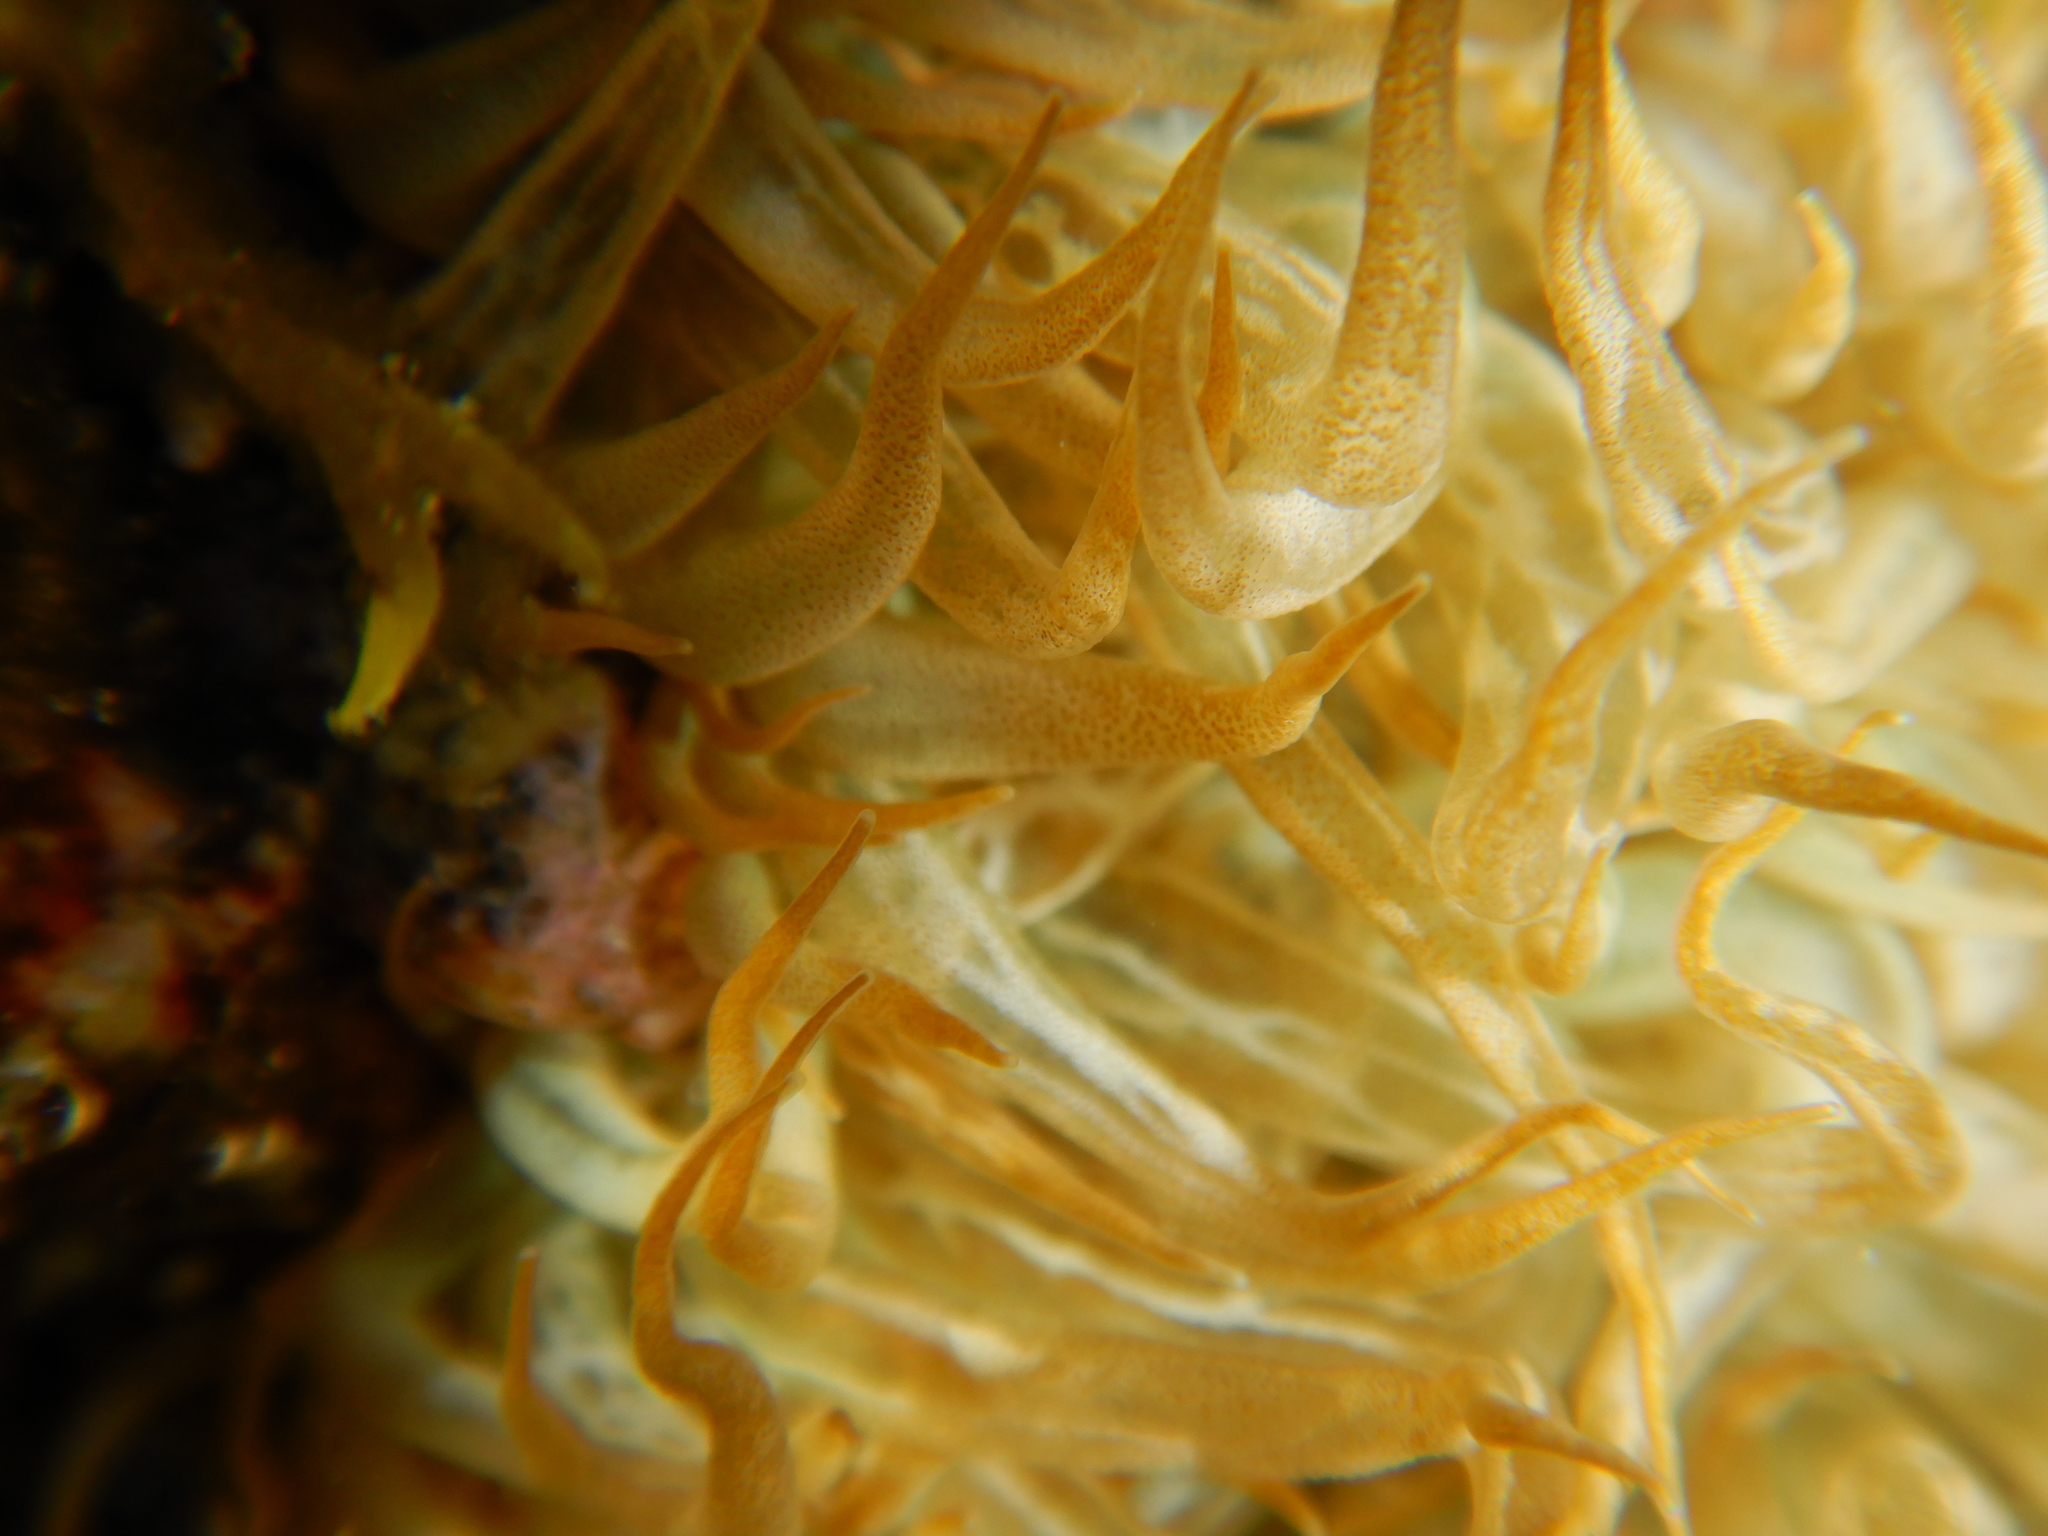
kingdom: Animalia
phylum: Cnidaria
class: Anthozoa
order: Actiniaria
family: Aiptasiidae
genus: Aiptasia
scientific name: Aiptasia mutabilis
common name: Trumpet anemone
